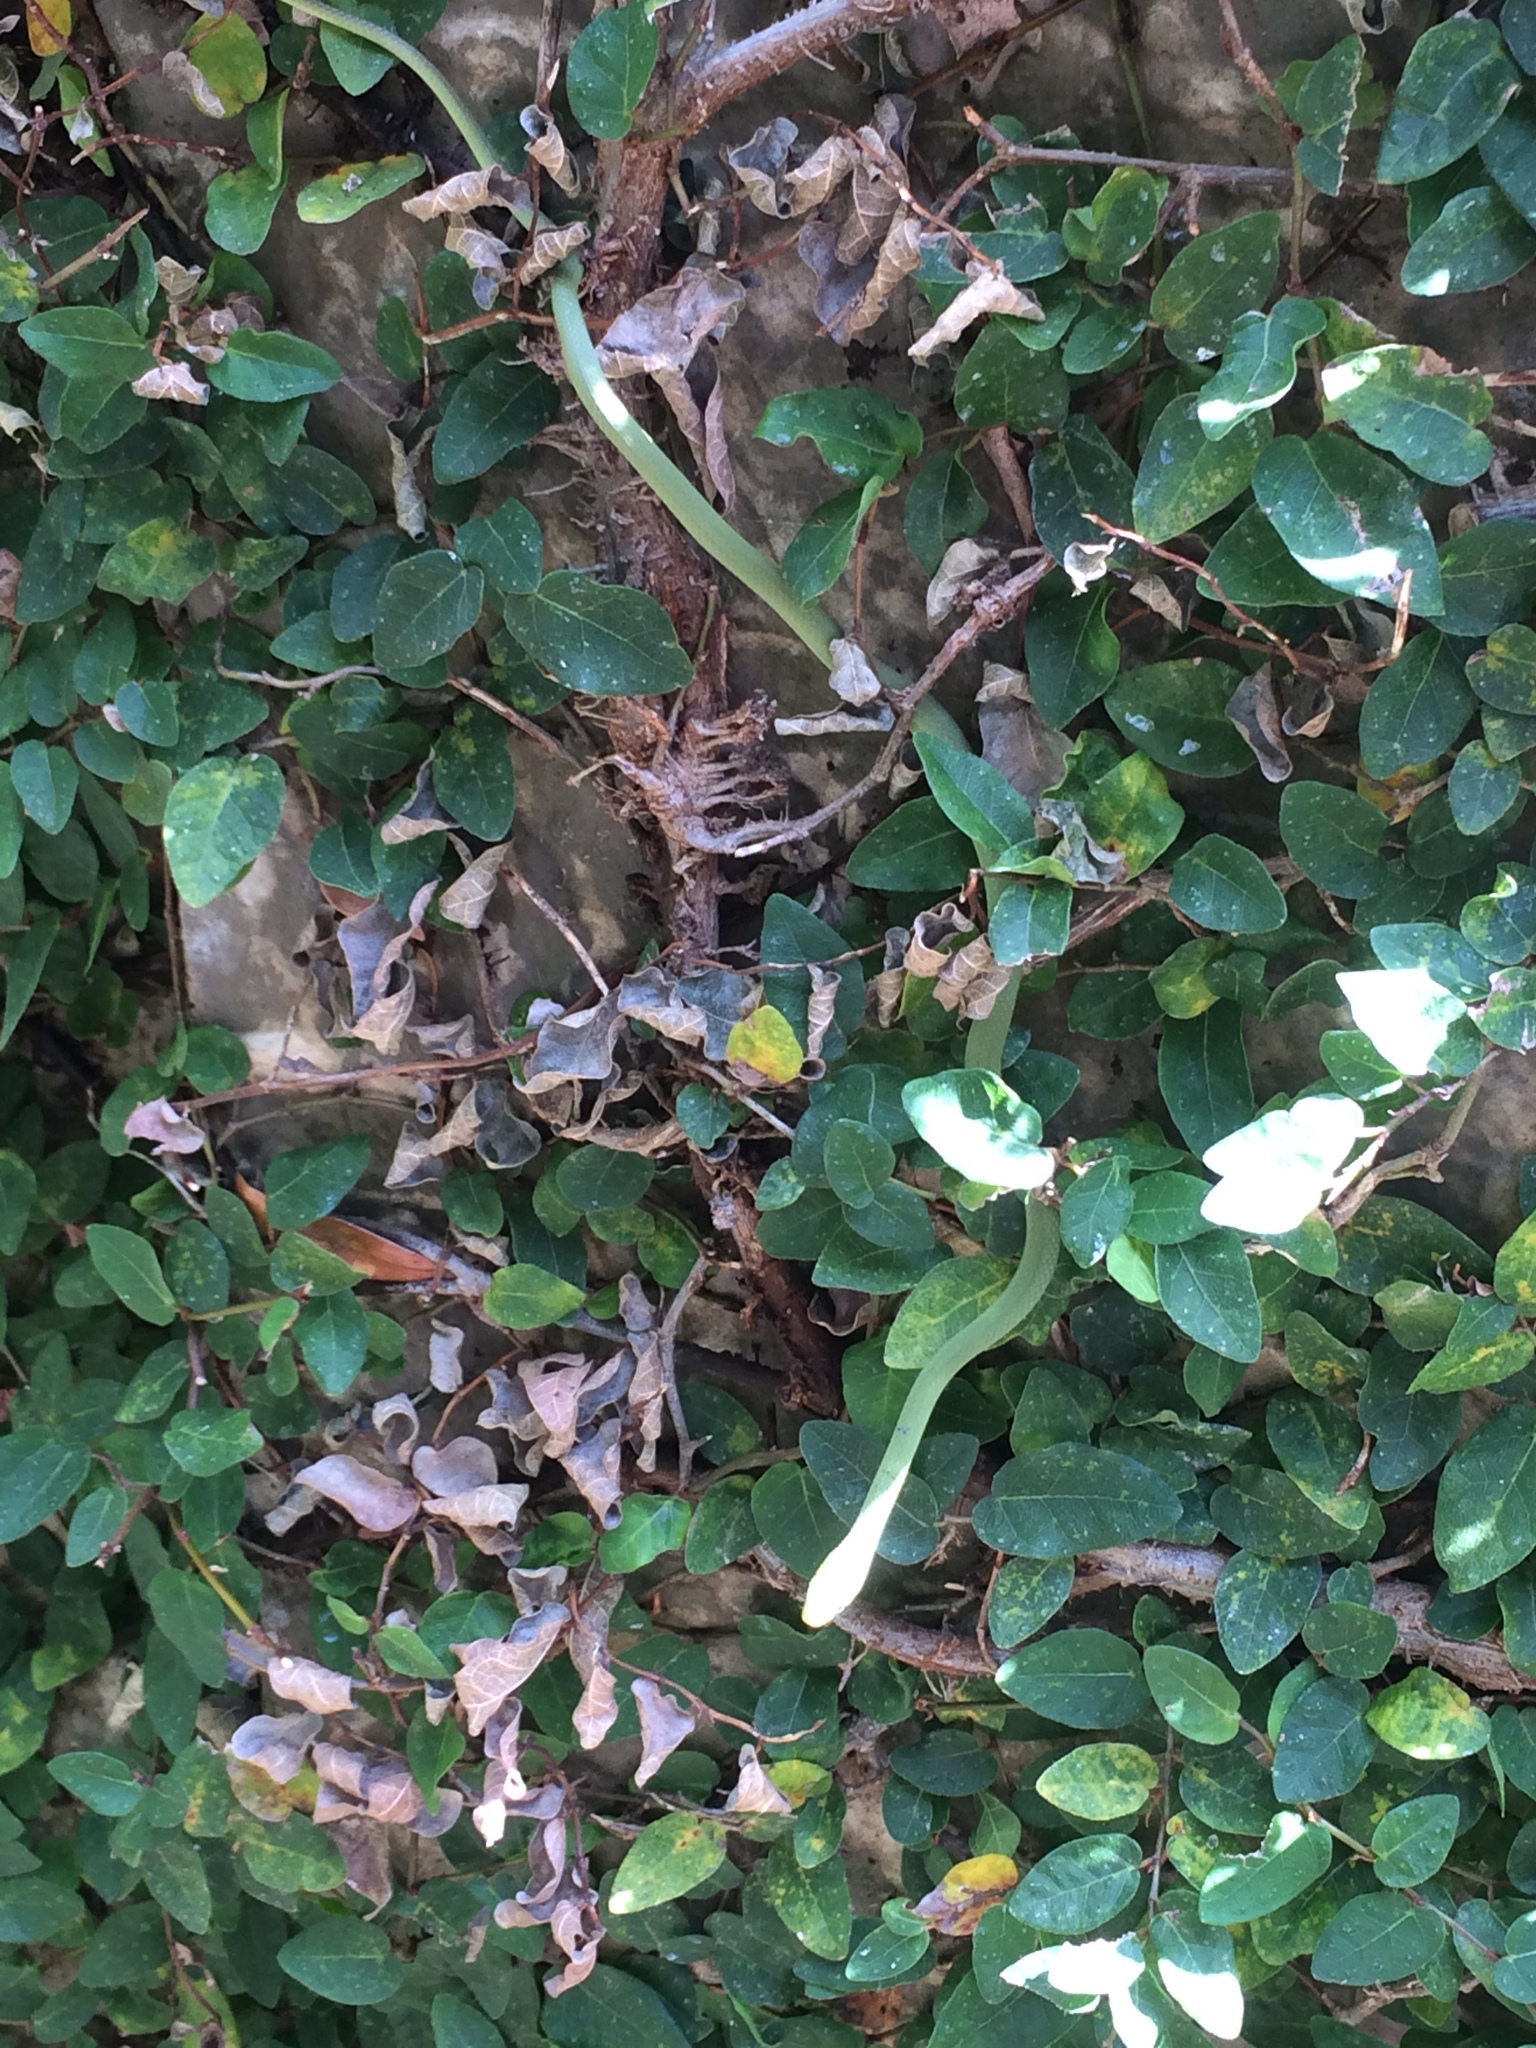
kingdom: Animalia
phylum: Chordata
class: Squamata
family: Colubridae
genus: Opheodrys
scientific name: Opheodrys aestivus
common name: Rough greensnake
